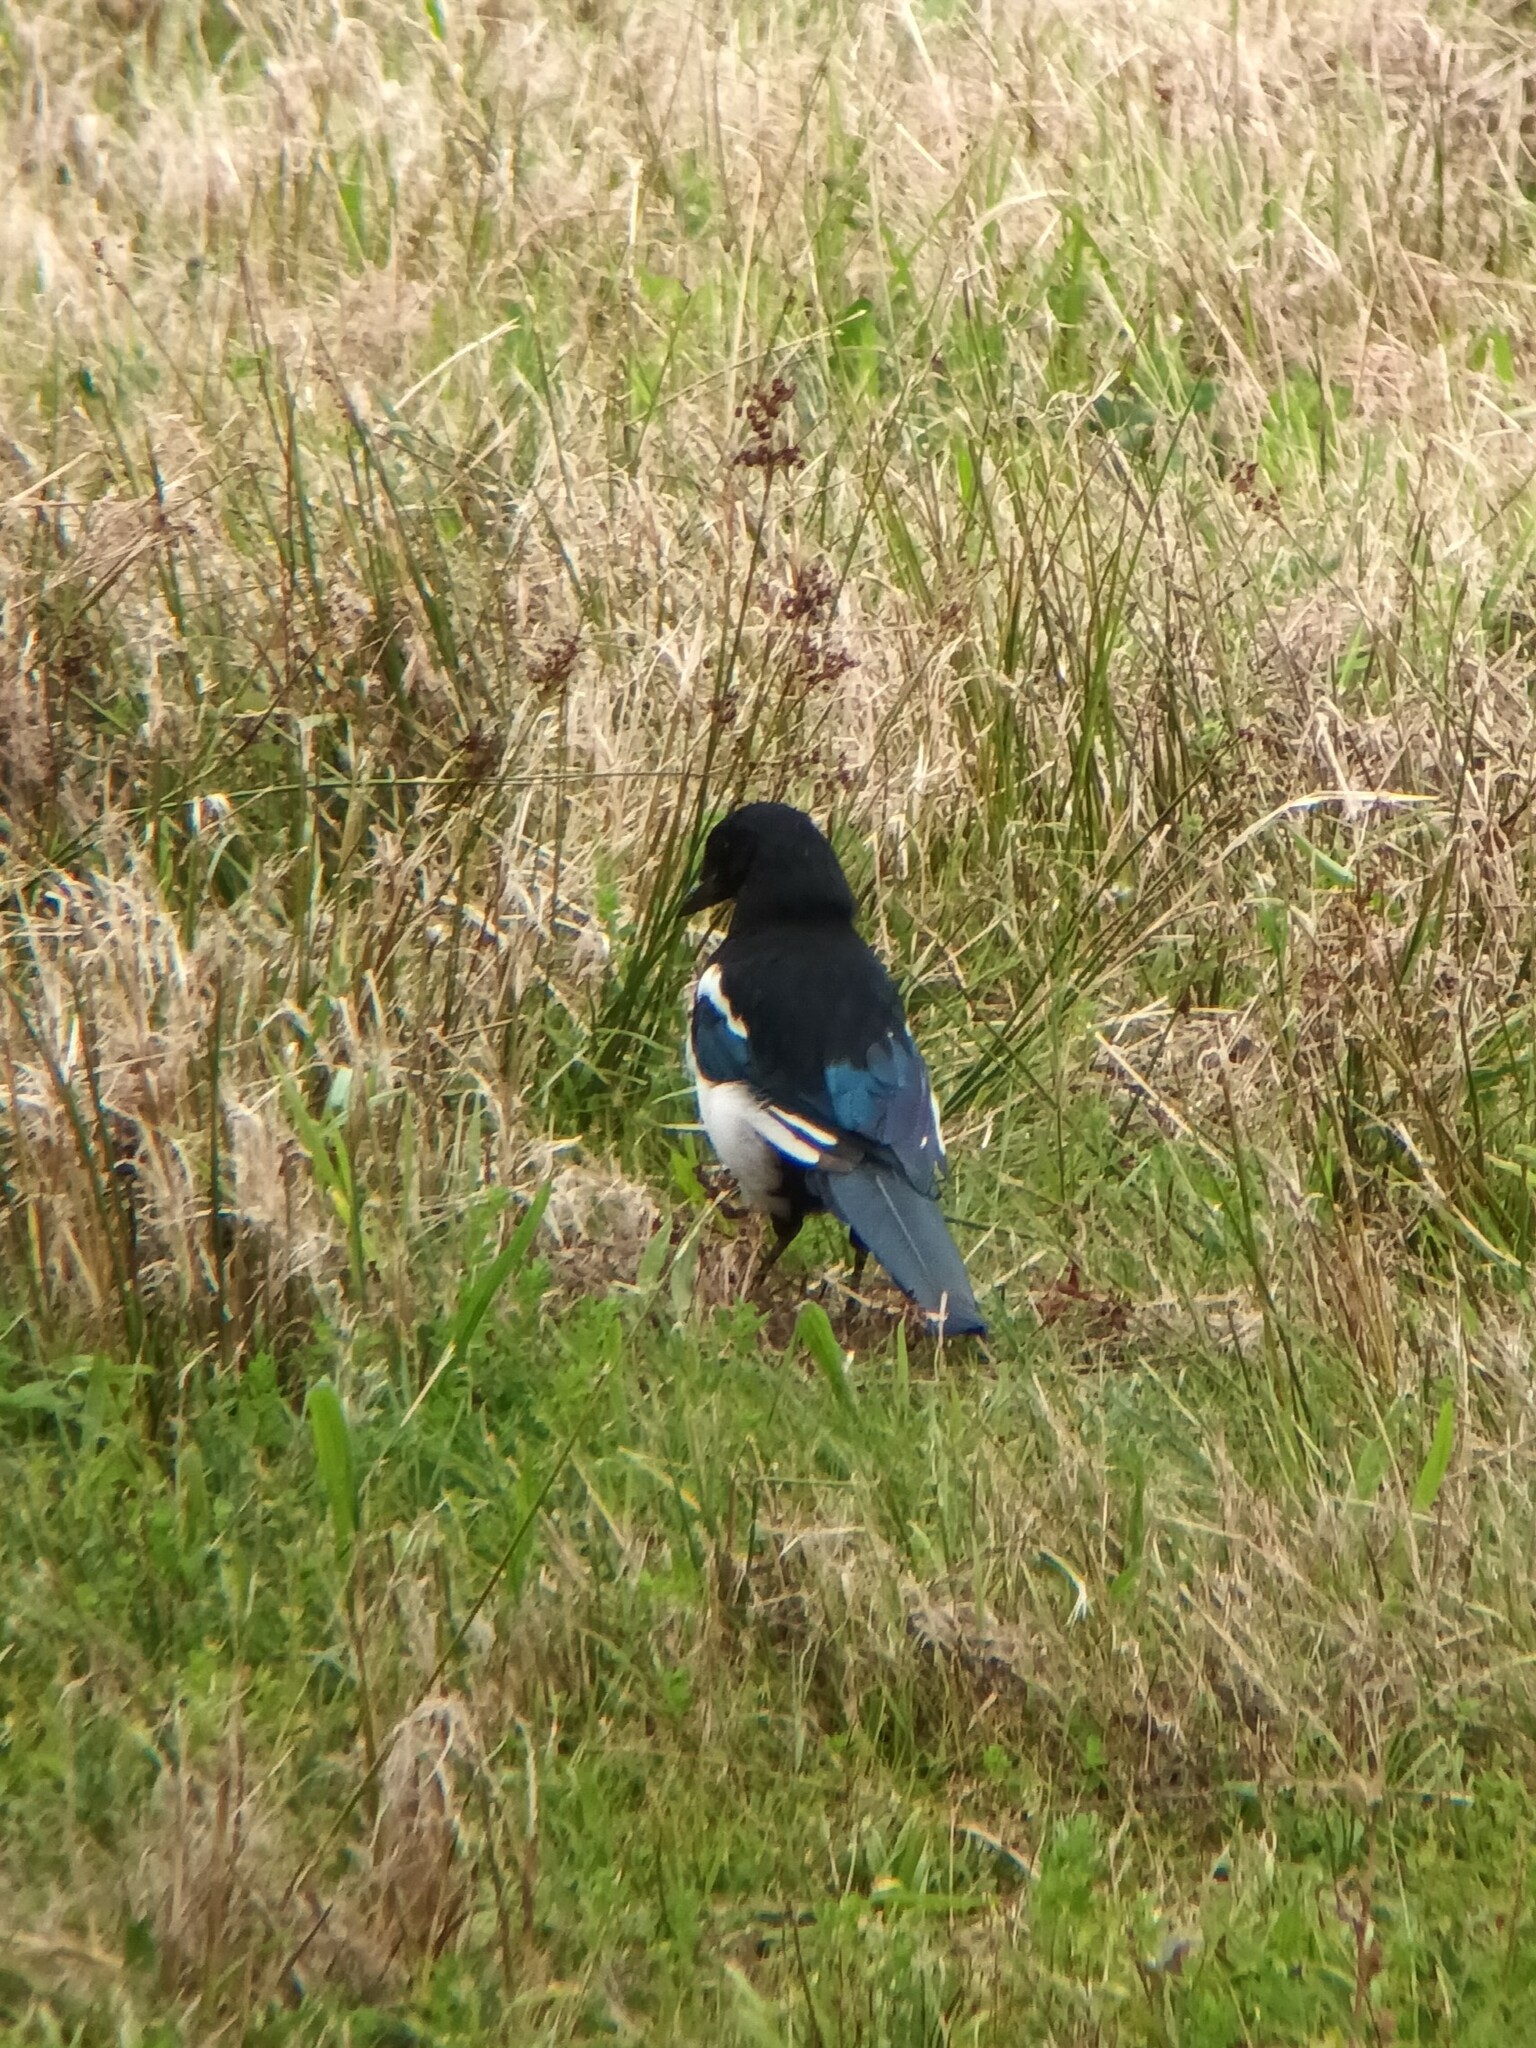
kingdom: Animalia
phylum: Chordata
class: Aves
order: Passeriformes
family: Corvidae
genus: Pica
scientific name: Pica pica
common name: Eurasian magpie
